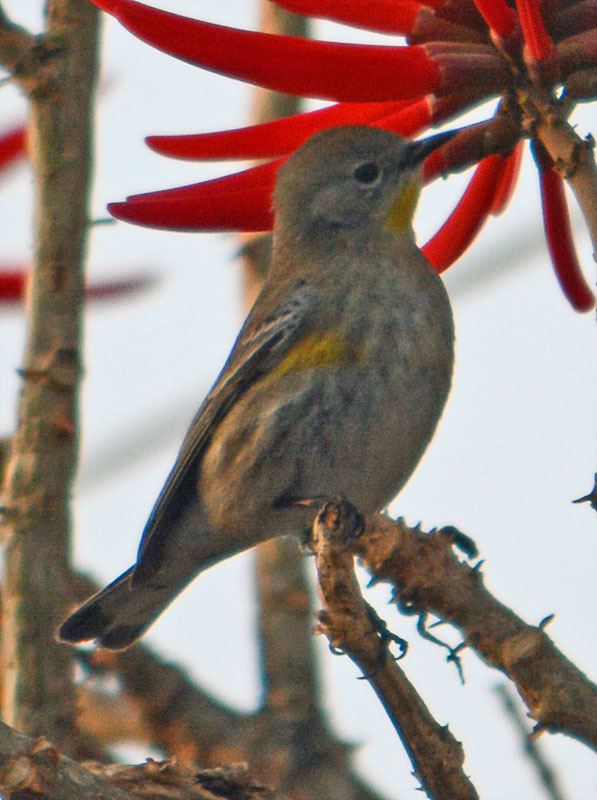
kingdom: Animalia
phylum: Chordata
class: Aves
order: Passeriformes
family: Parulidae
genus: Setophaga
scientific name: Setophaga auduboni
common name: Audubon's warbler
